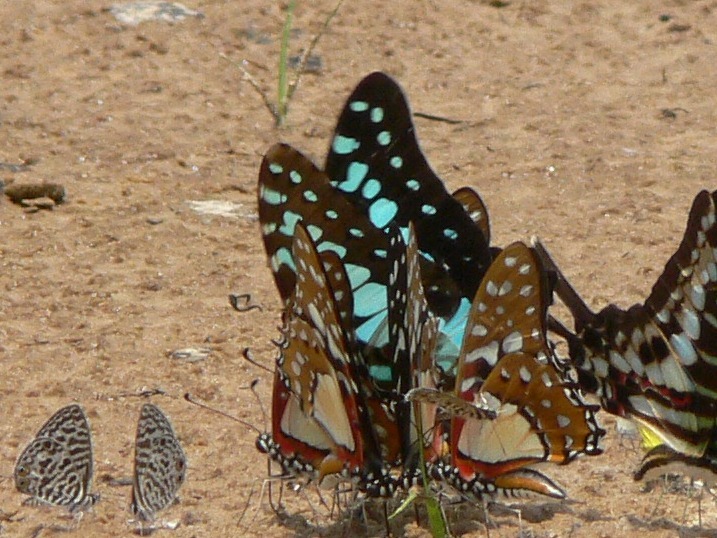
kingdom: Animalia
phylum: Arthropoda
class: Insecta
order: Lepidoptera
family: Papilionidae
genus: Graphium
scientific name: Graphium antheus
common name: Large striped swordtail
